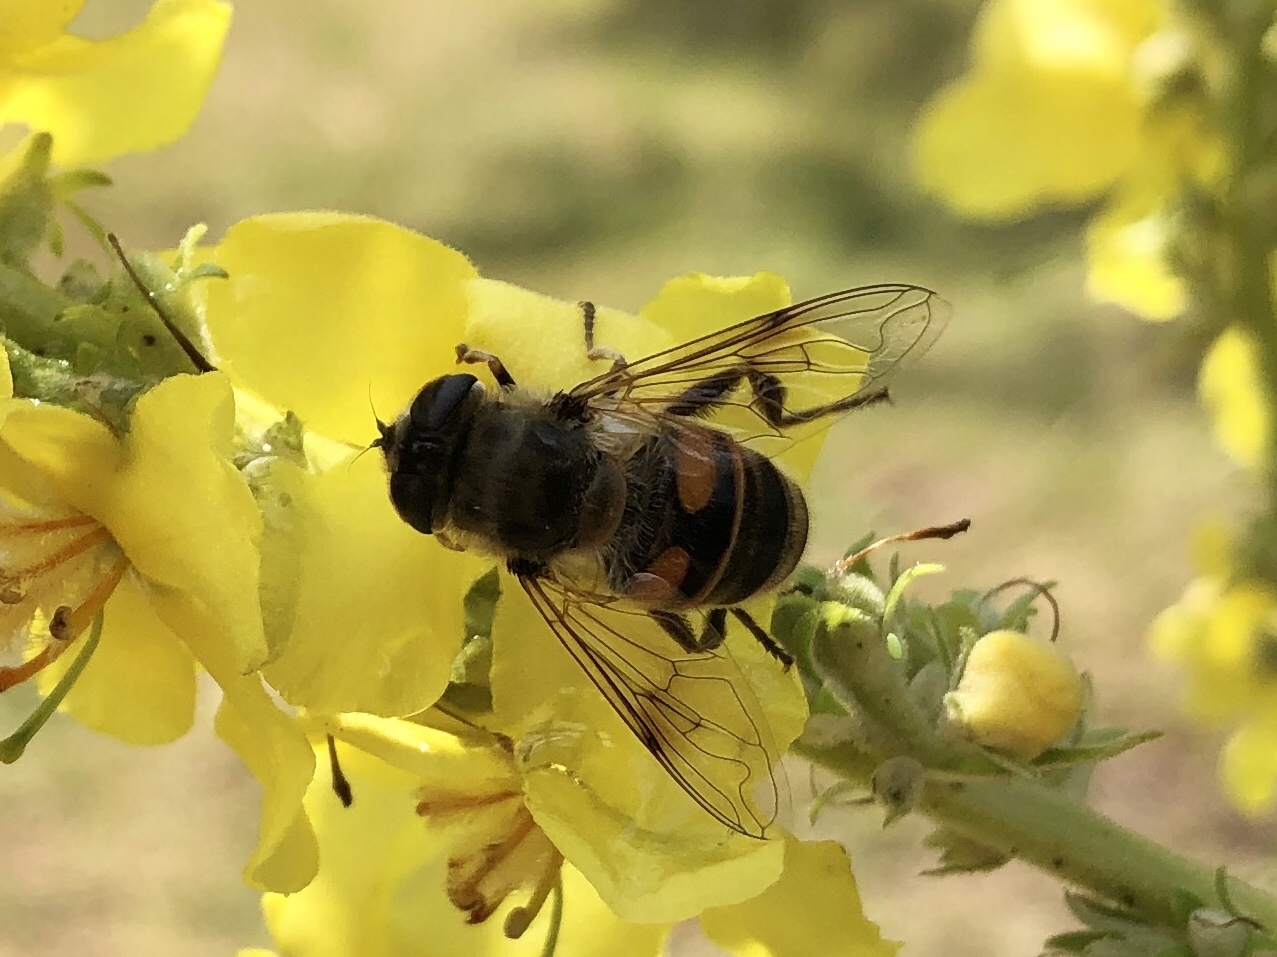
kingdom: Animalia
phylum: Arthropoda
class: Insecta
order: Diptera
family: Syrphidae
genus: Eristalis
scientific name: Eristalis tenax
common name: Drone fly
